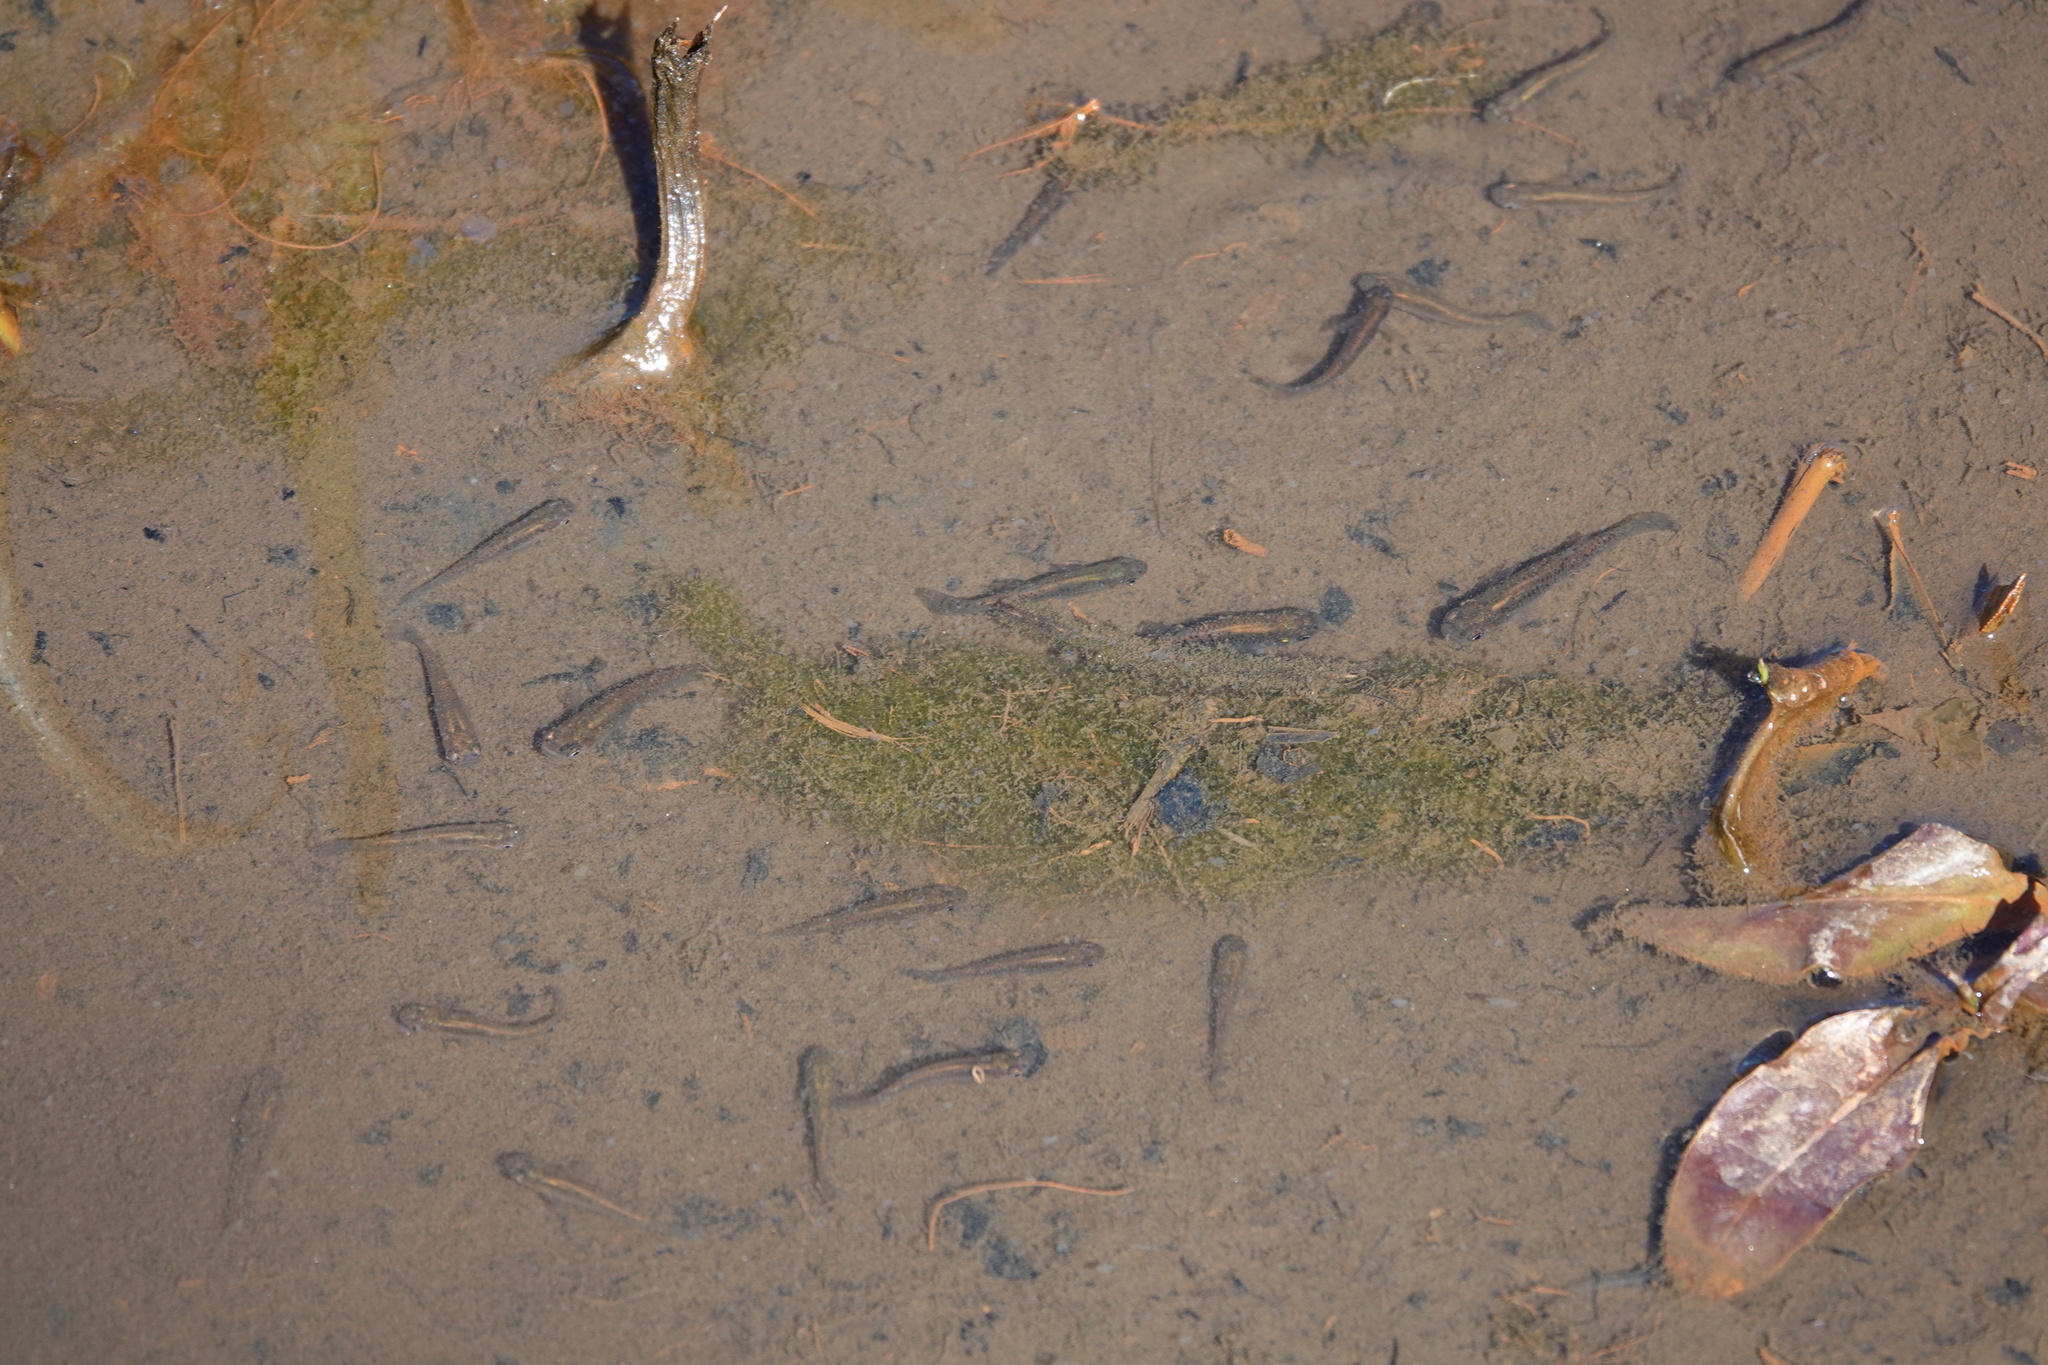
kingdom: Animalia
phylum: Chordata
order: Cyprinodontiformes
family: Poeciliidae
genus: Gambusia
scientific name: Gambusia holbrooki
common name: Eastern mosquitofish
